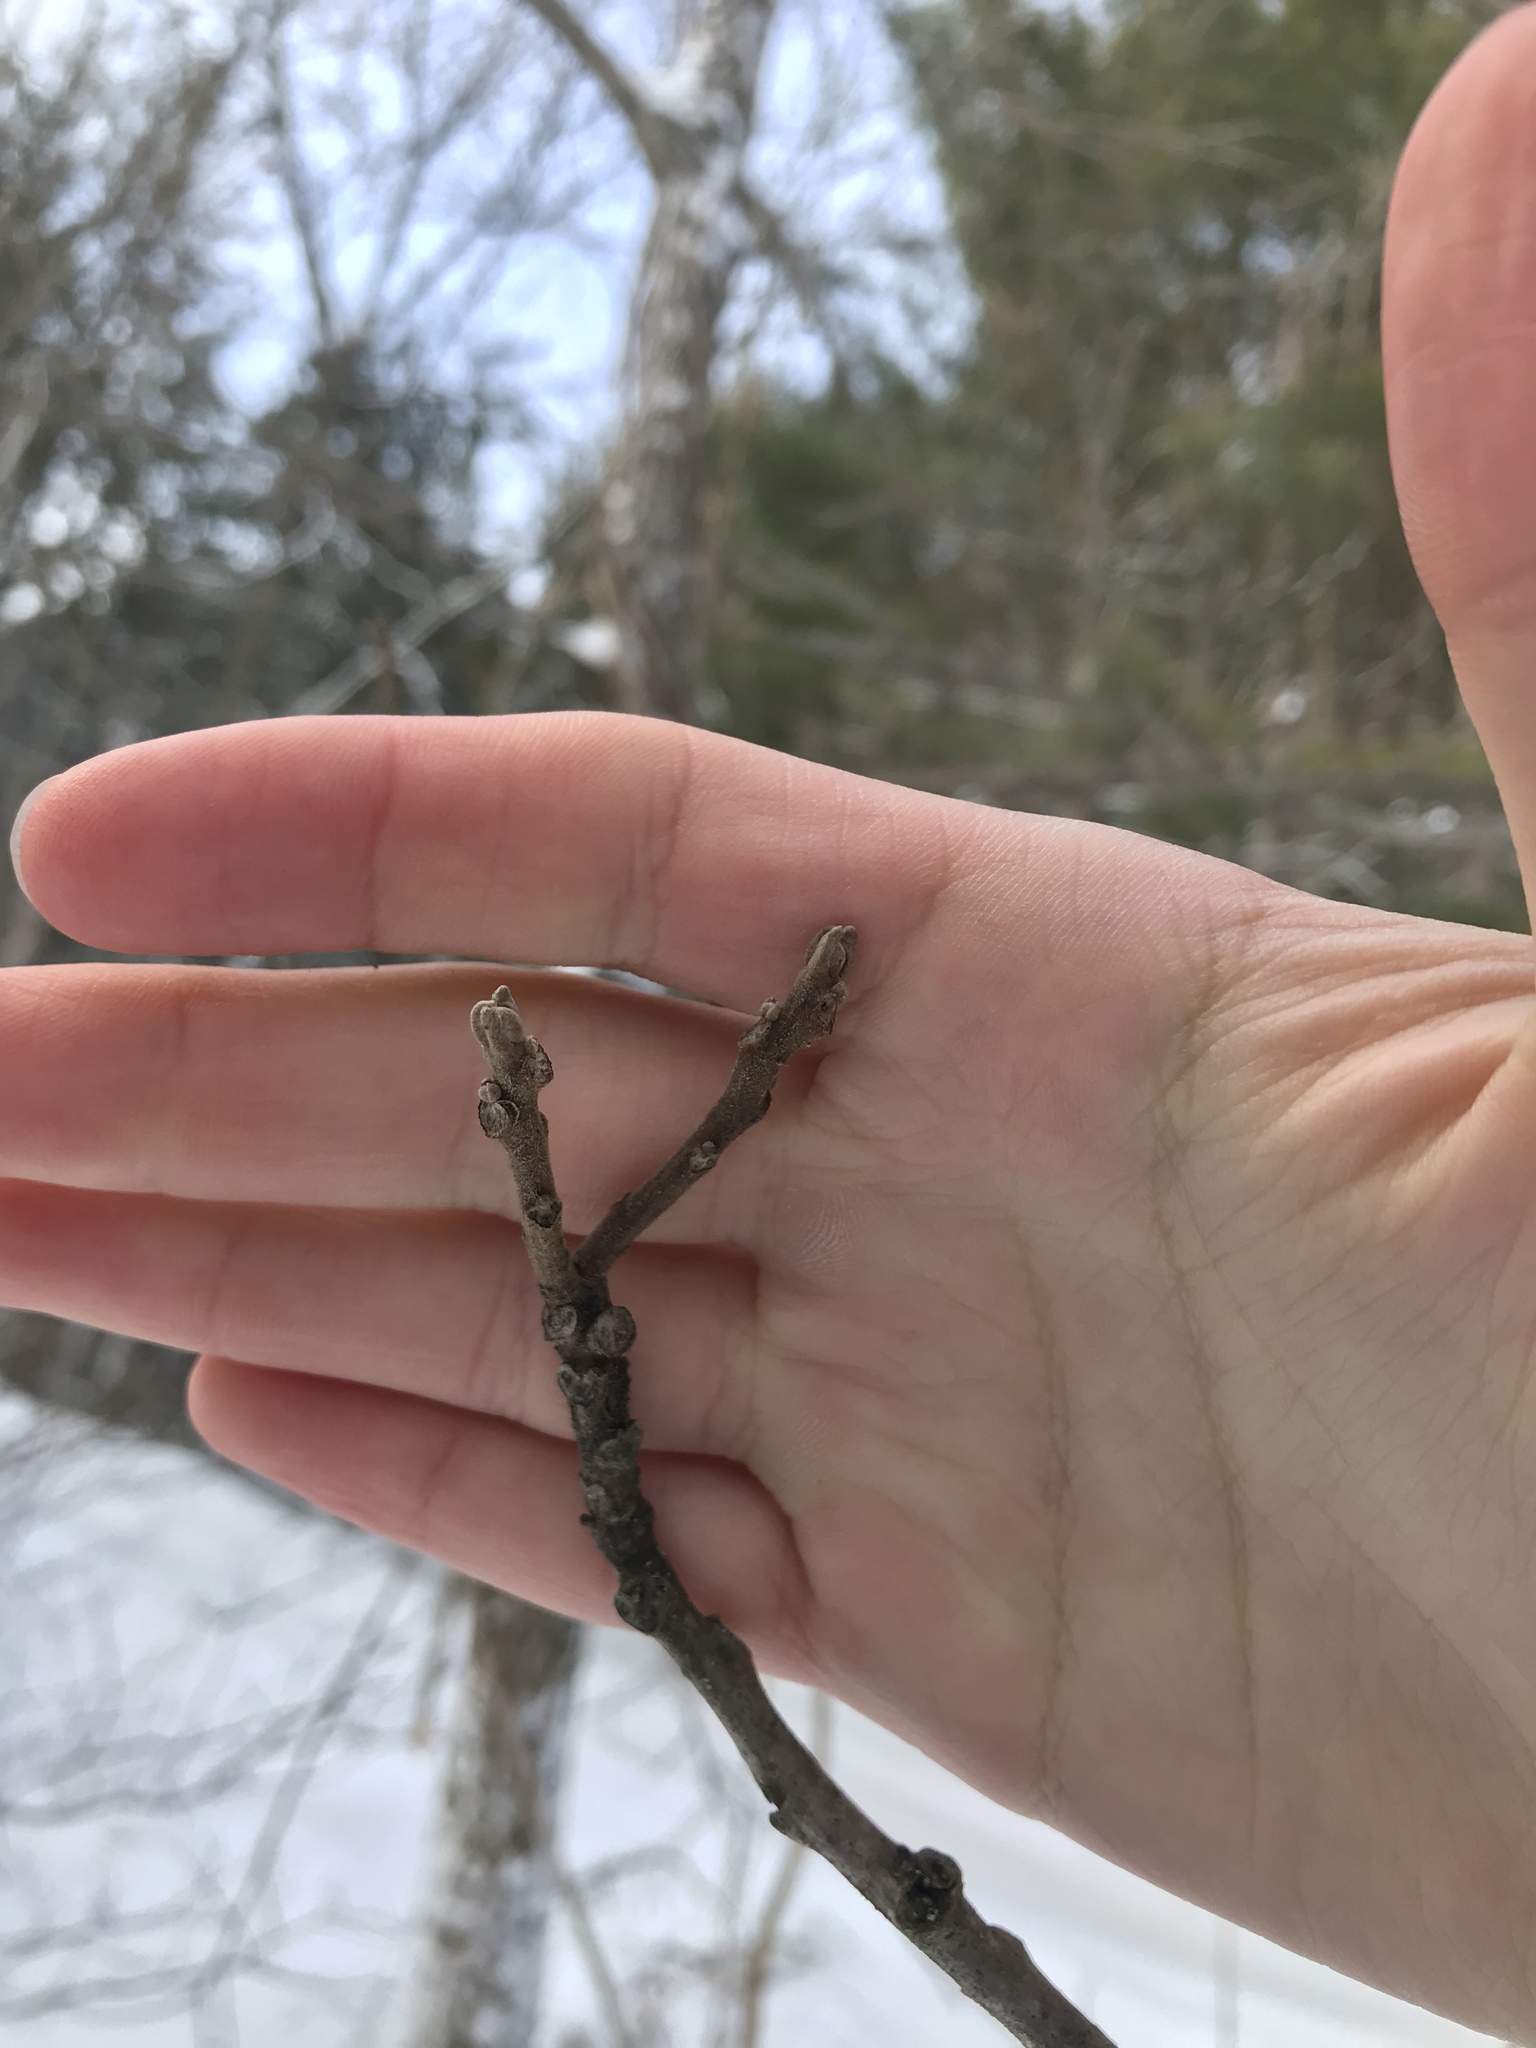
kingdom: Plantae
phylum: Tracheophyta
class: Magnoliopsida
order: Fagales
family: Juglandaceae
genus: Juglans
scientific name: Juglans nigra
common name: Black walnut
